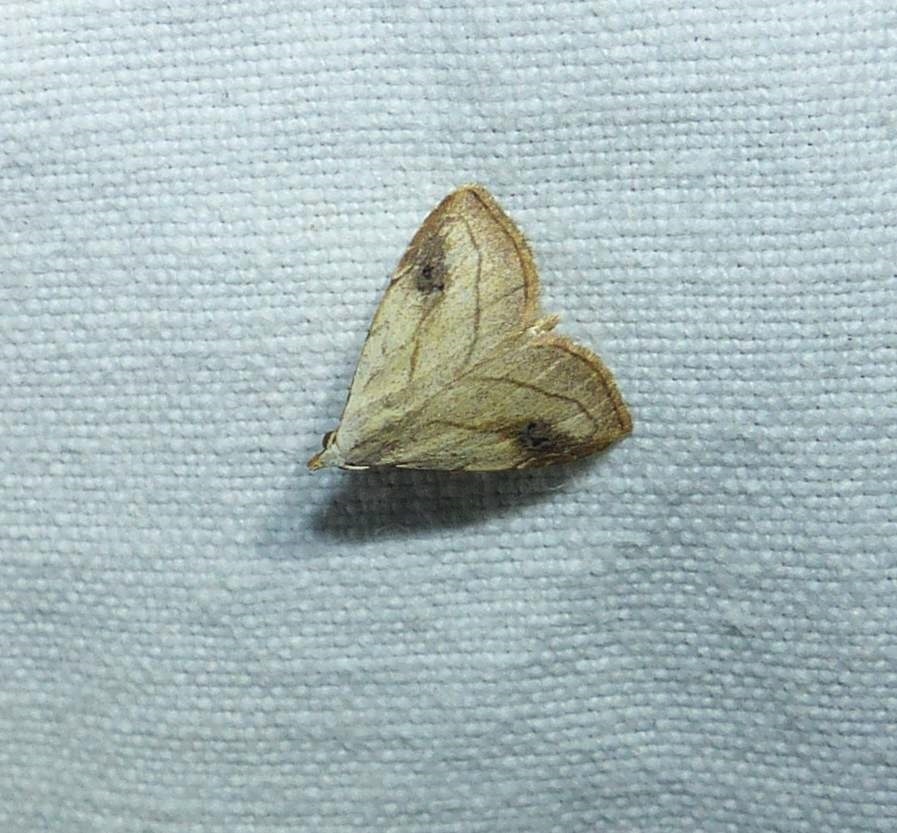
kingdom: Animalia
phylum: Arthropoda
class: Insecta
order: Lepidoptera
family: Erebidae
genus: Rivula
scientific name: Rivula propinqualis
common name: Spotted grass moth
